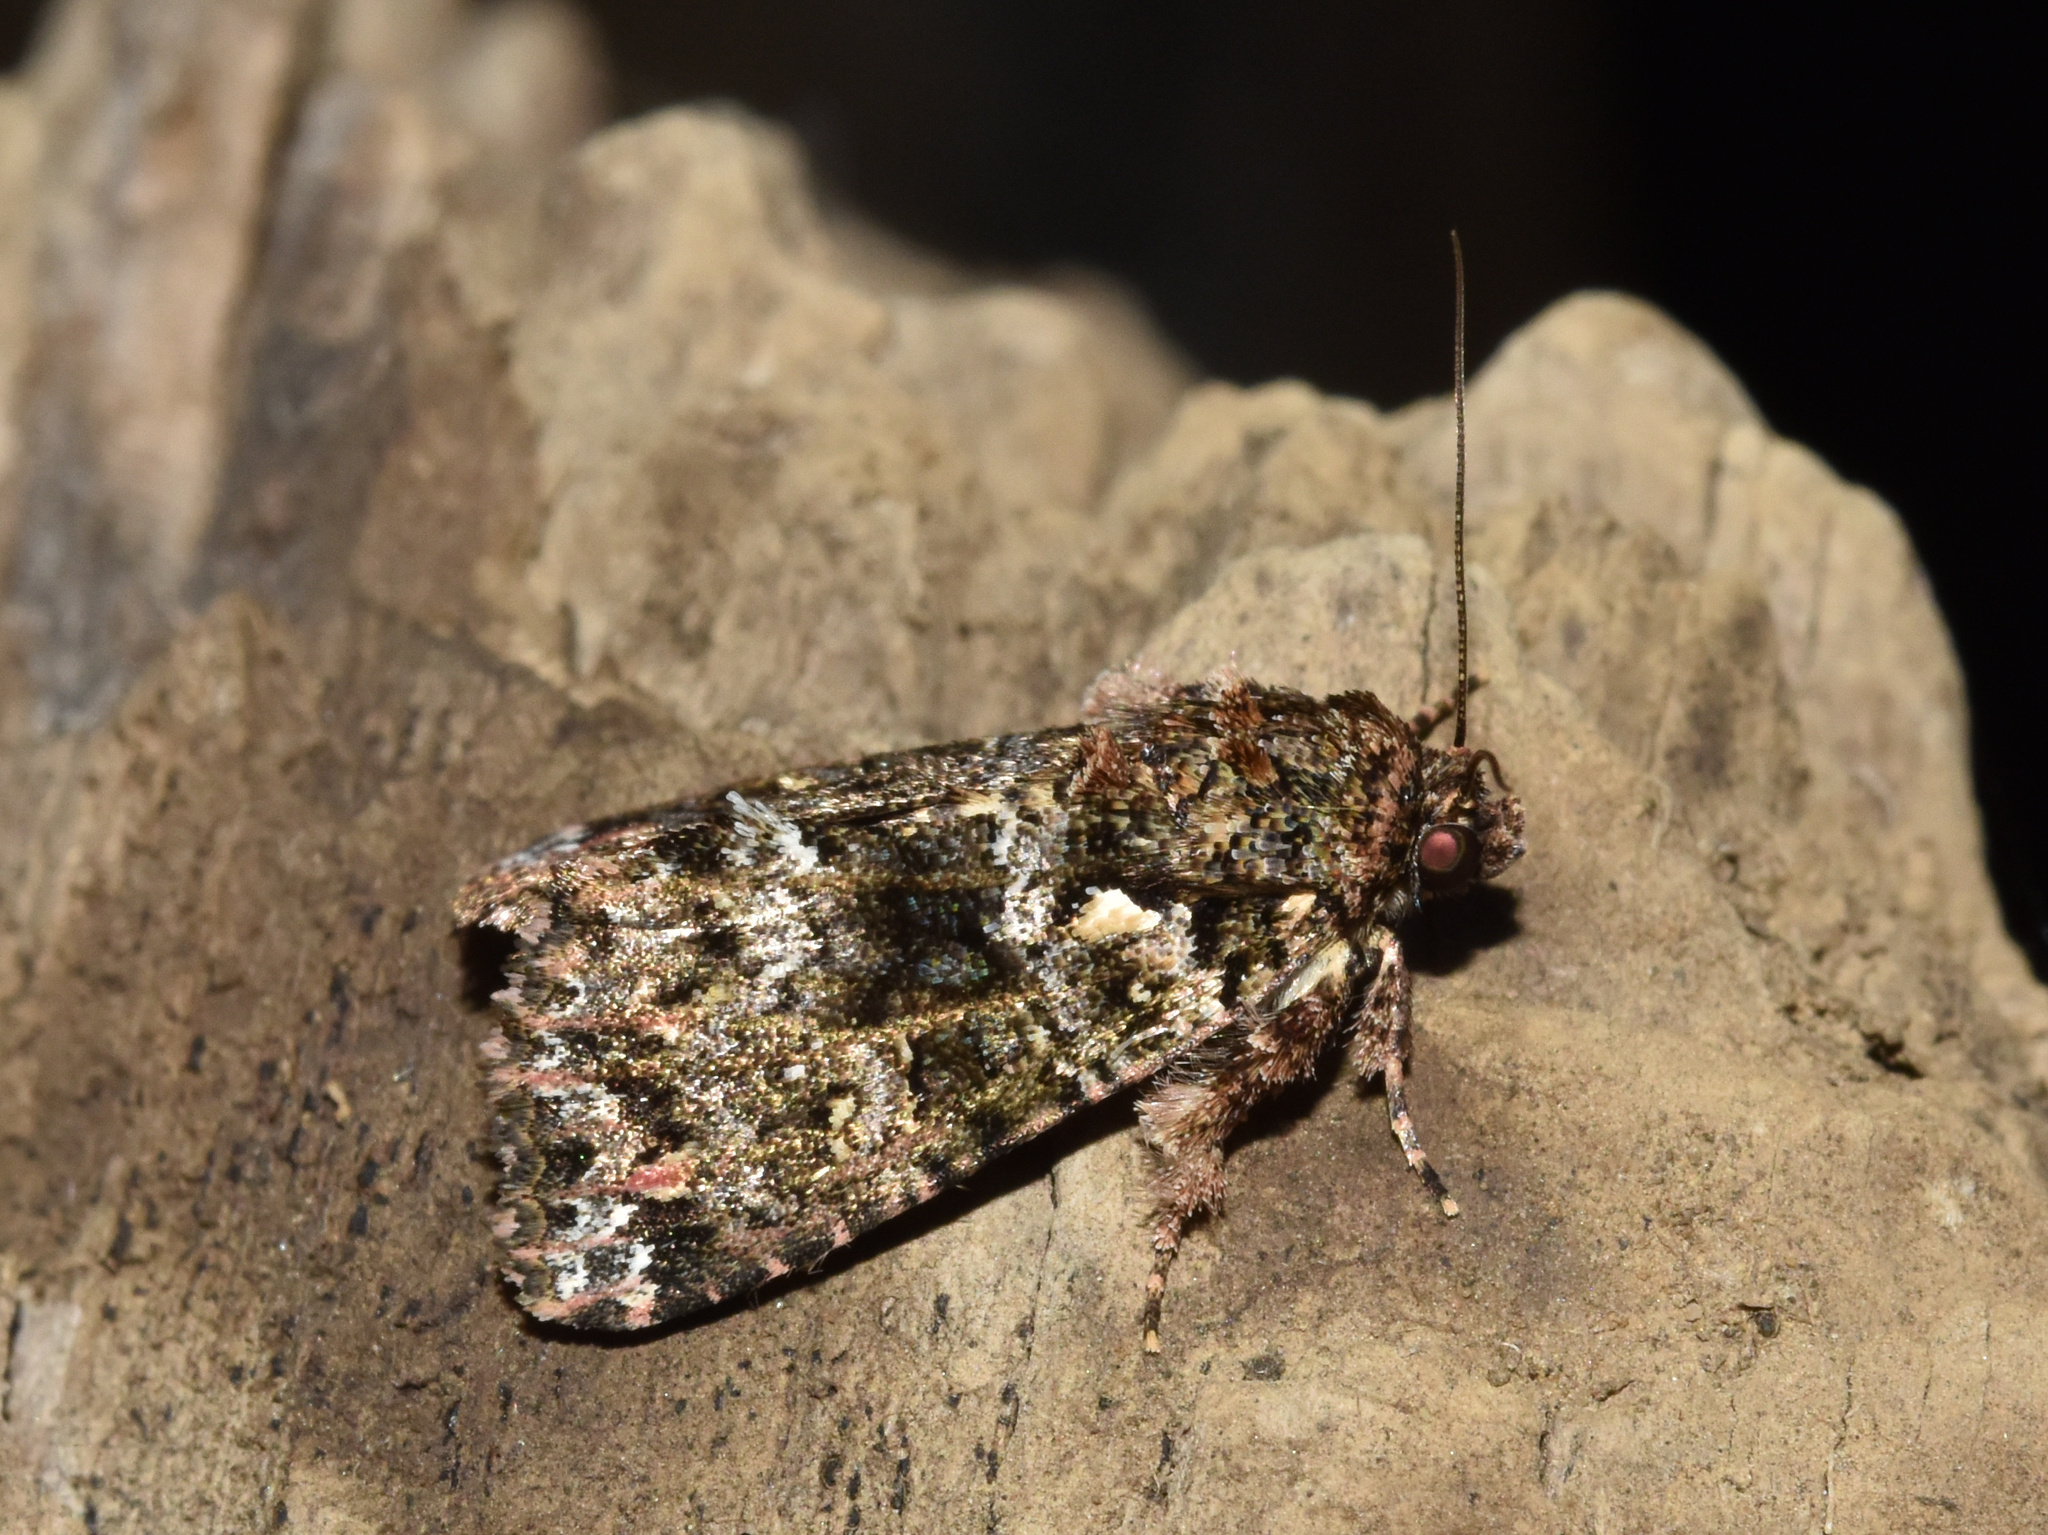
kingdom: Animalia
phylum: Arthropoda
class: Insecta
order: Lepidoptera
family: Noctuidae
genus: Callopistria
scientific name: Callopistria latreillei
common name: Latreille's latin
